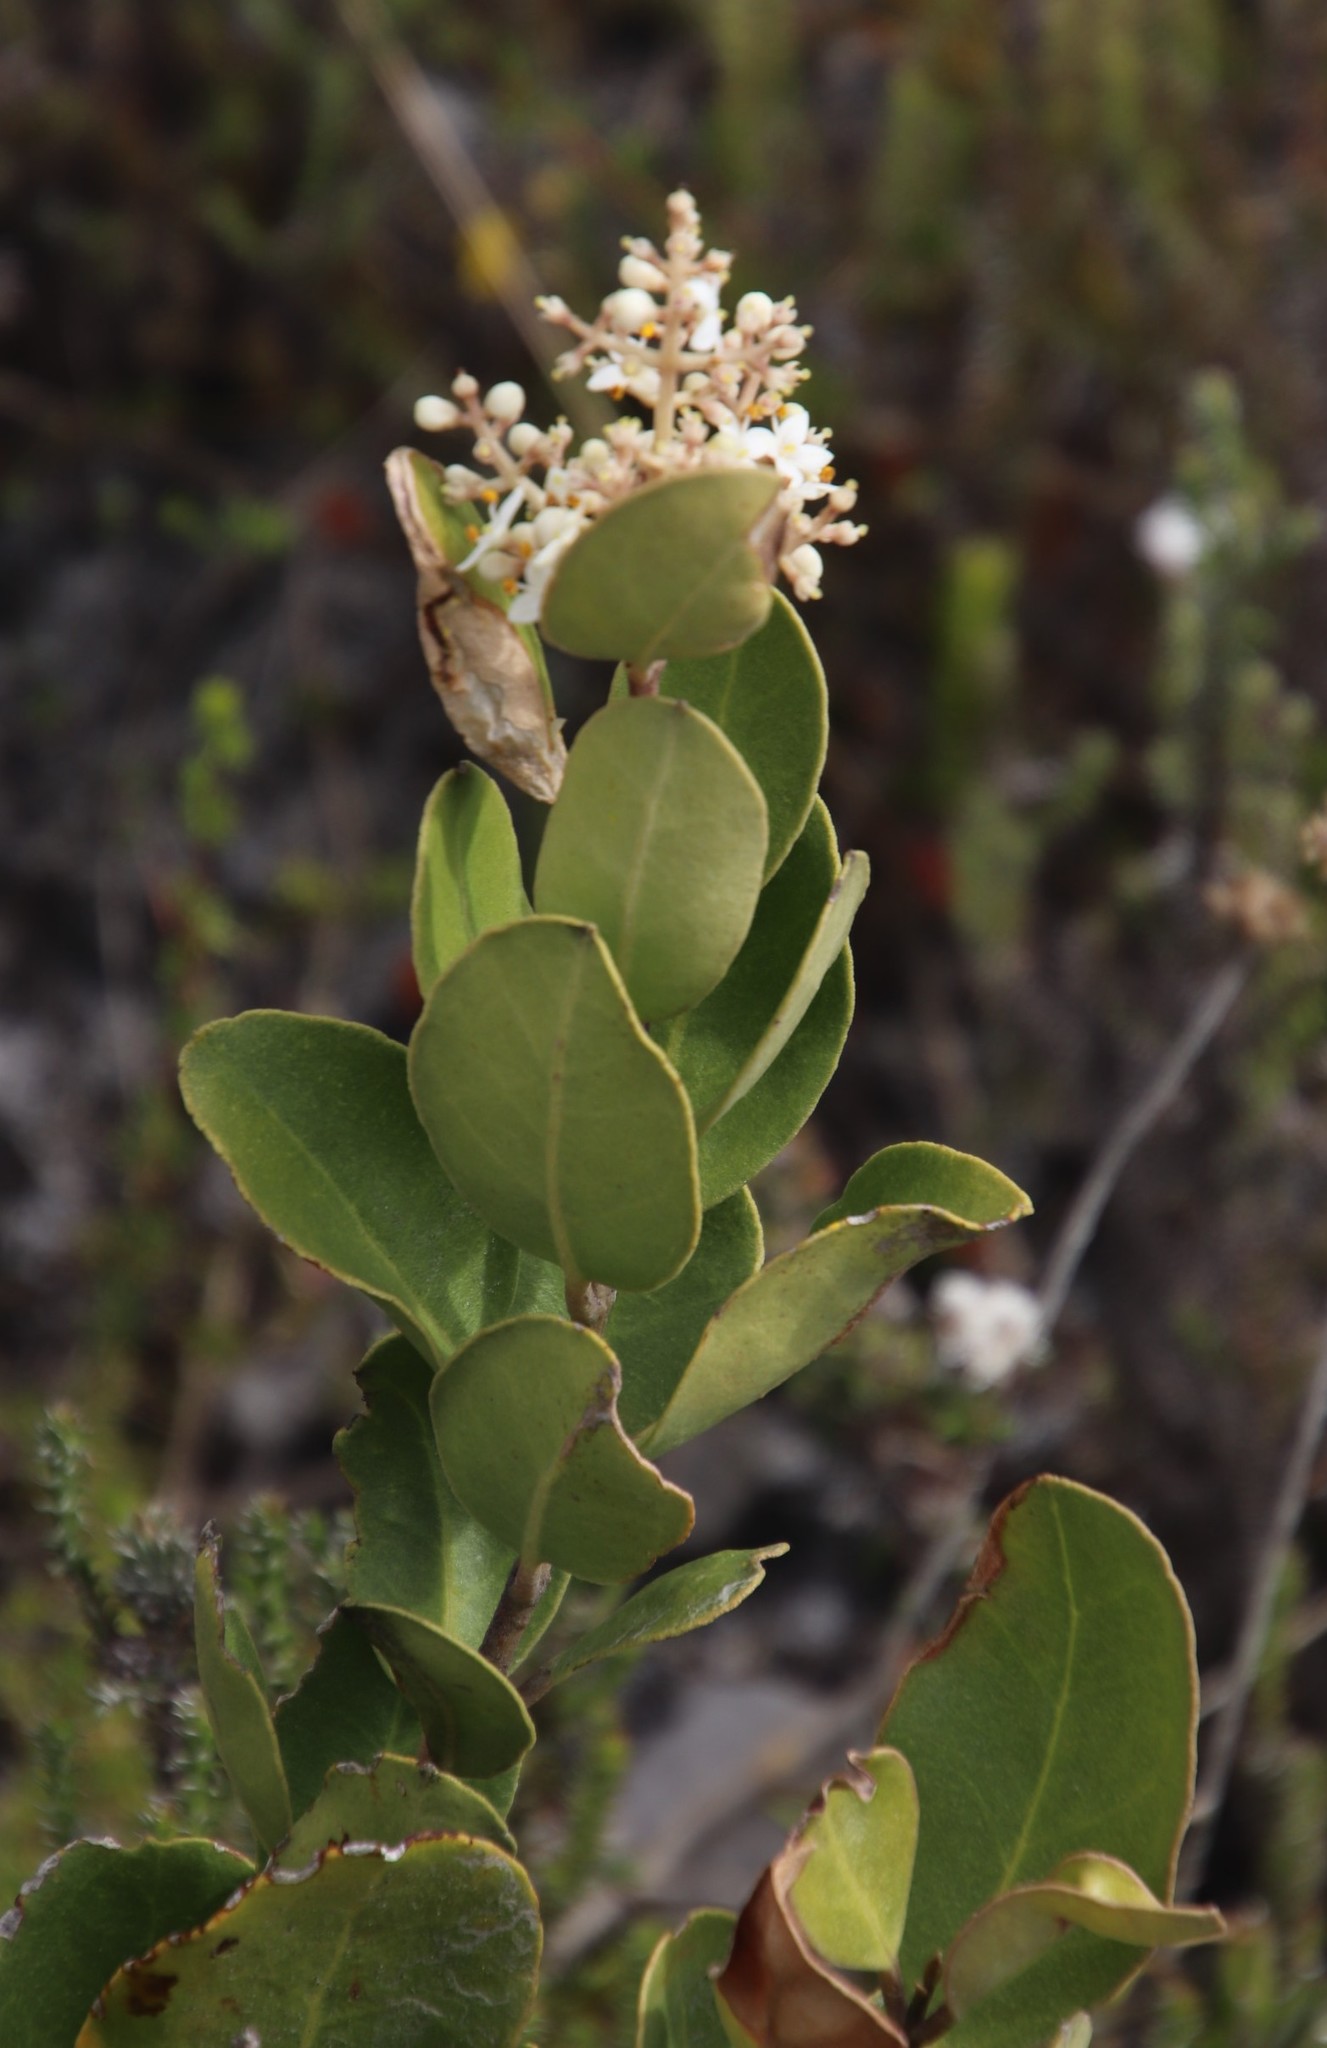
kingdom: Plantae
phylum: Tracheophyta
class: Magnoliopsida
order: Lamiales
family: Oleaceae
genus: Olea
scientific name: Olea capensis
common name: Black ironwood
